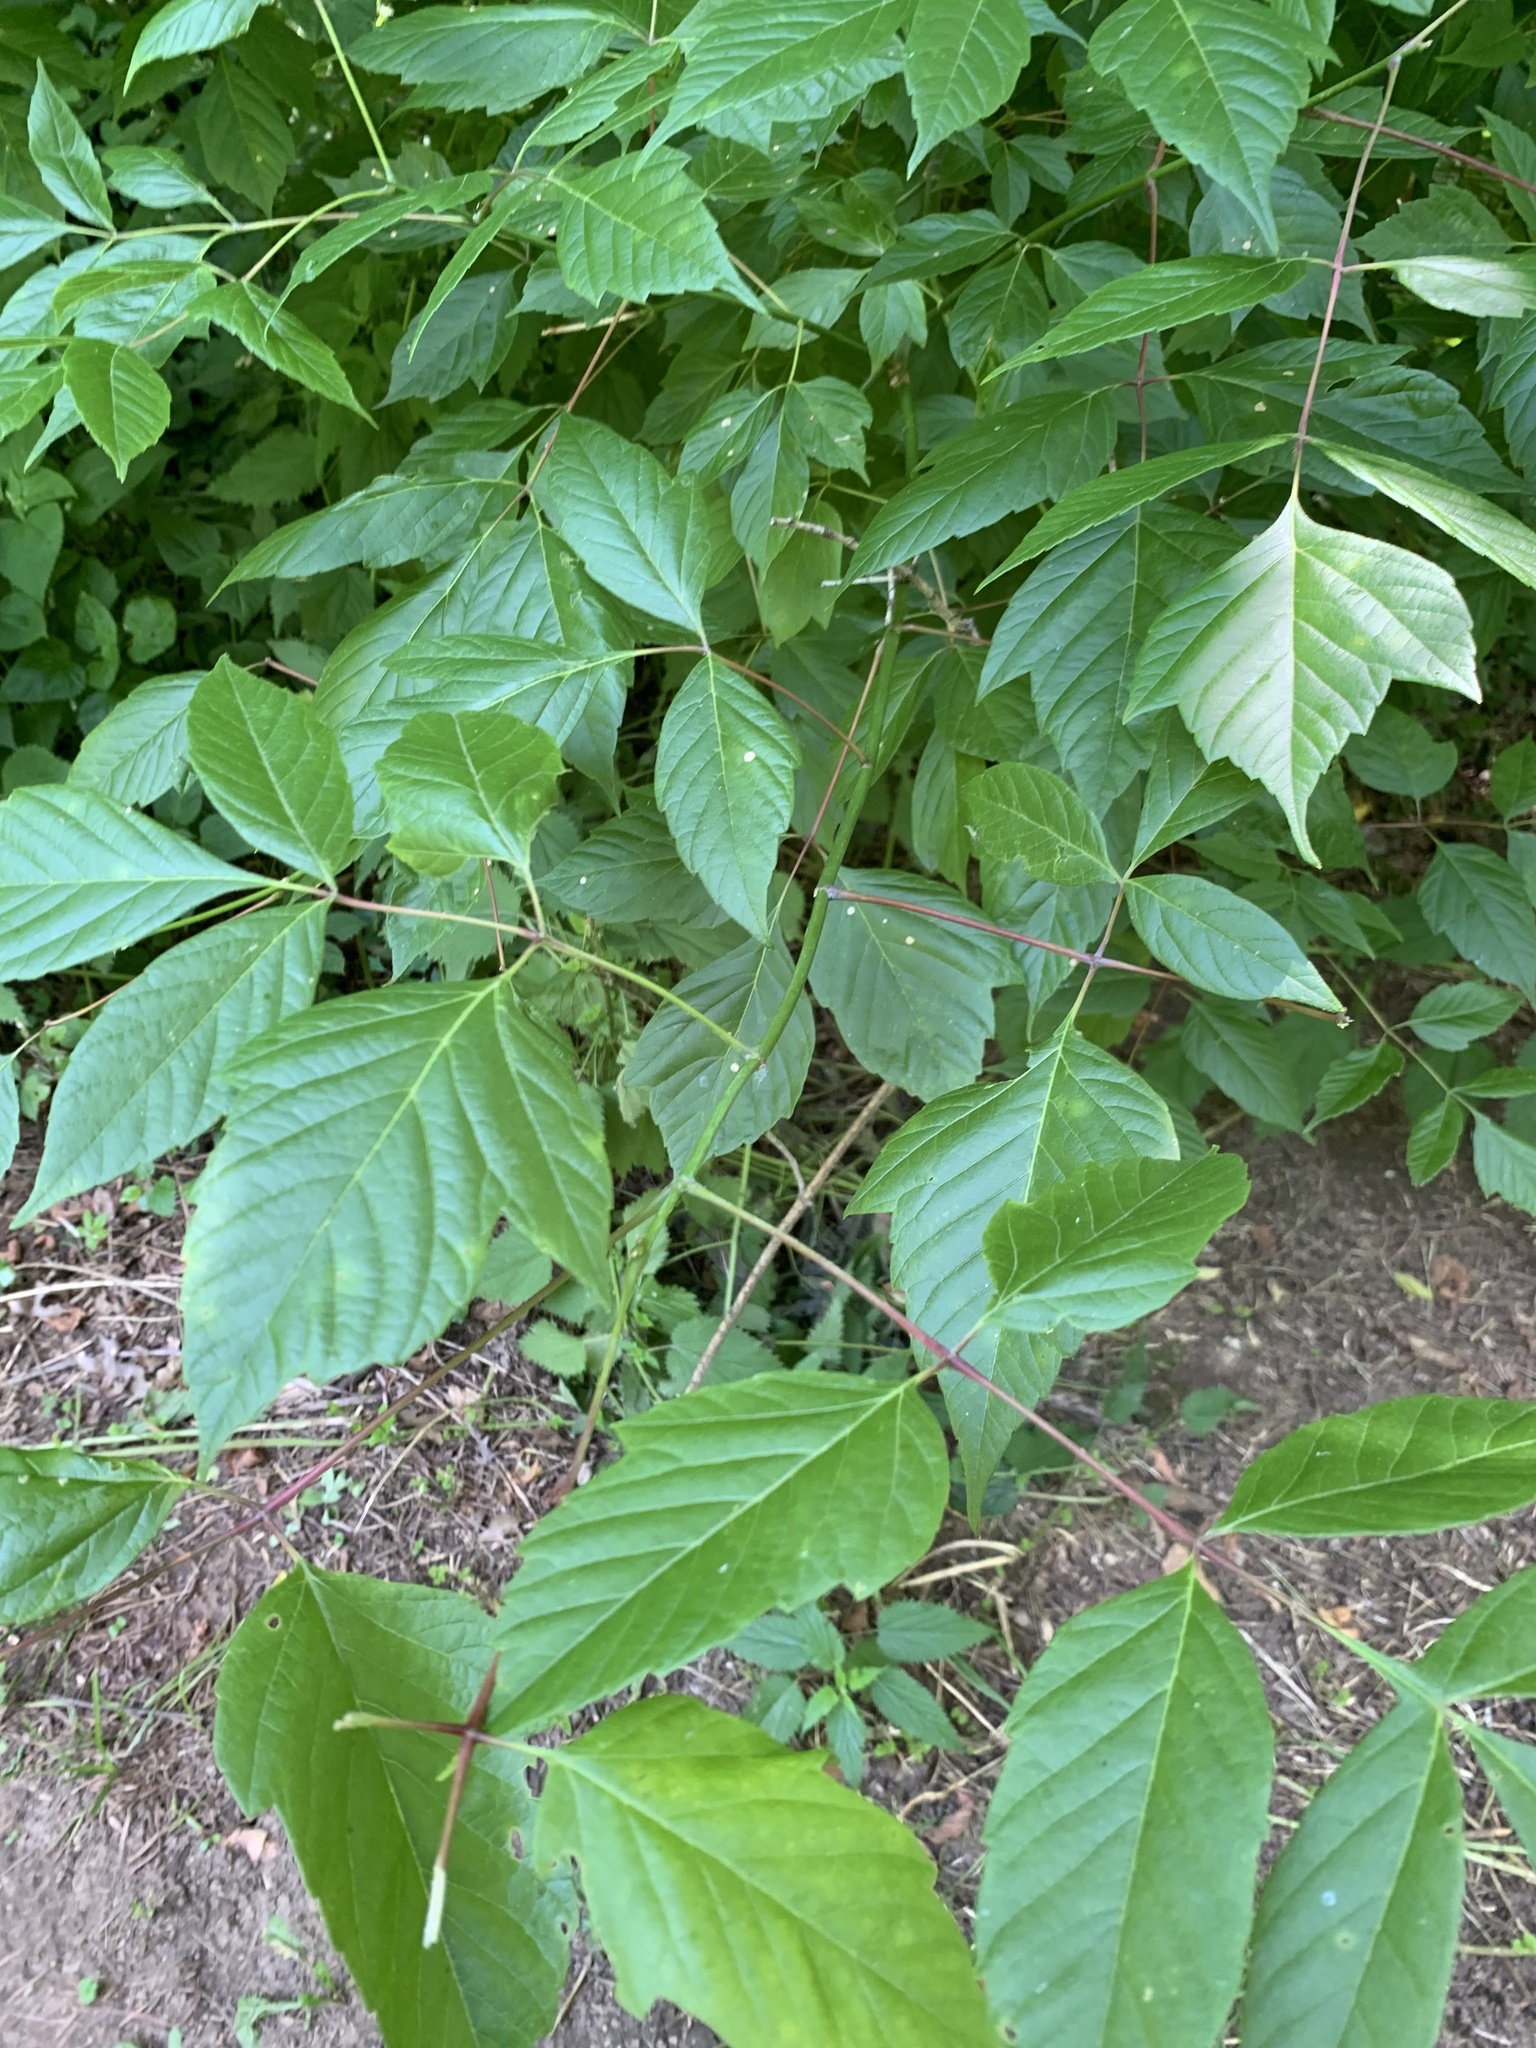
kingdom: Plantae
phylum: Tracheophyta
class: Magnoliopsida
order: Sapindales
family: Sapindaceae
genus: Acer
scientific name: Acer negundo
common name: Ashleaf maple
